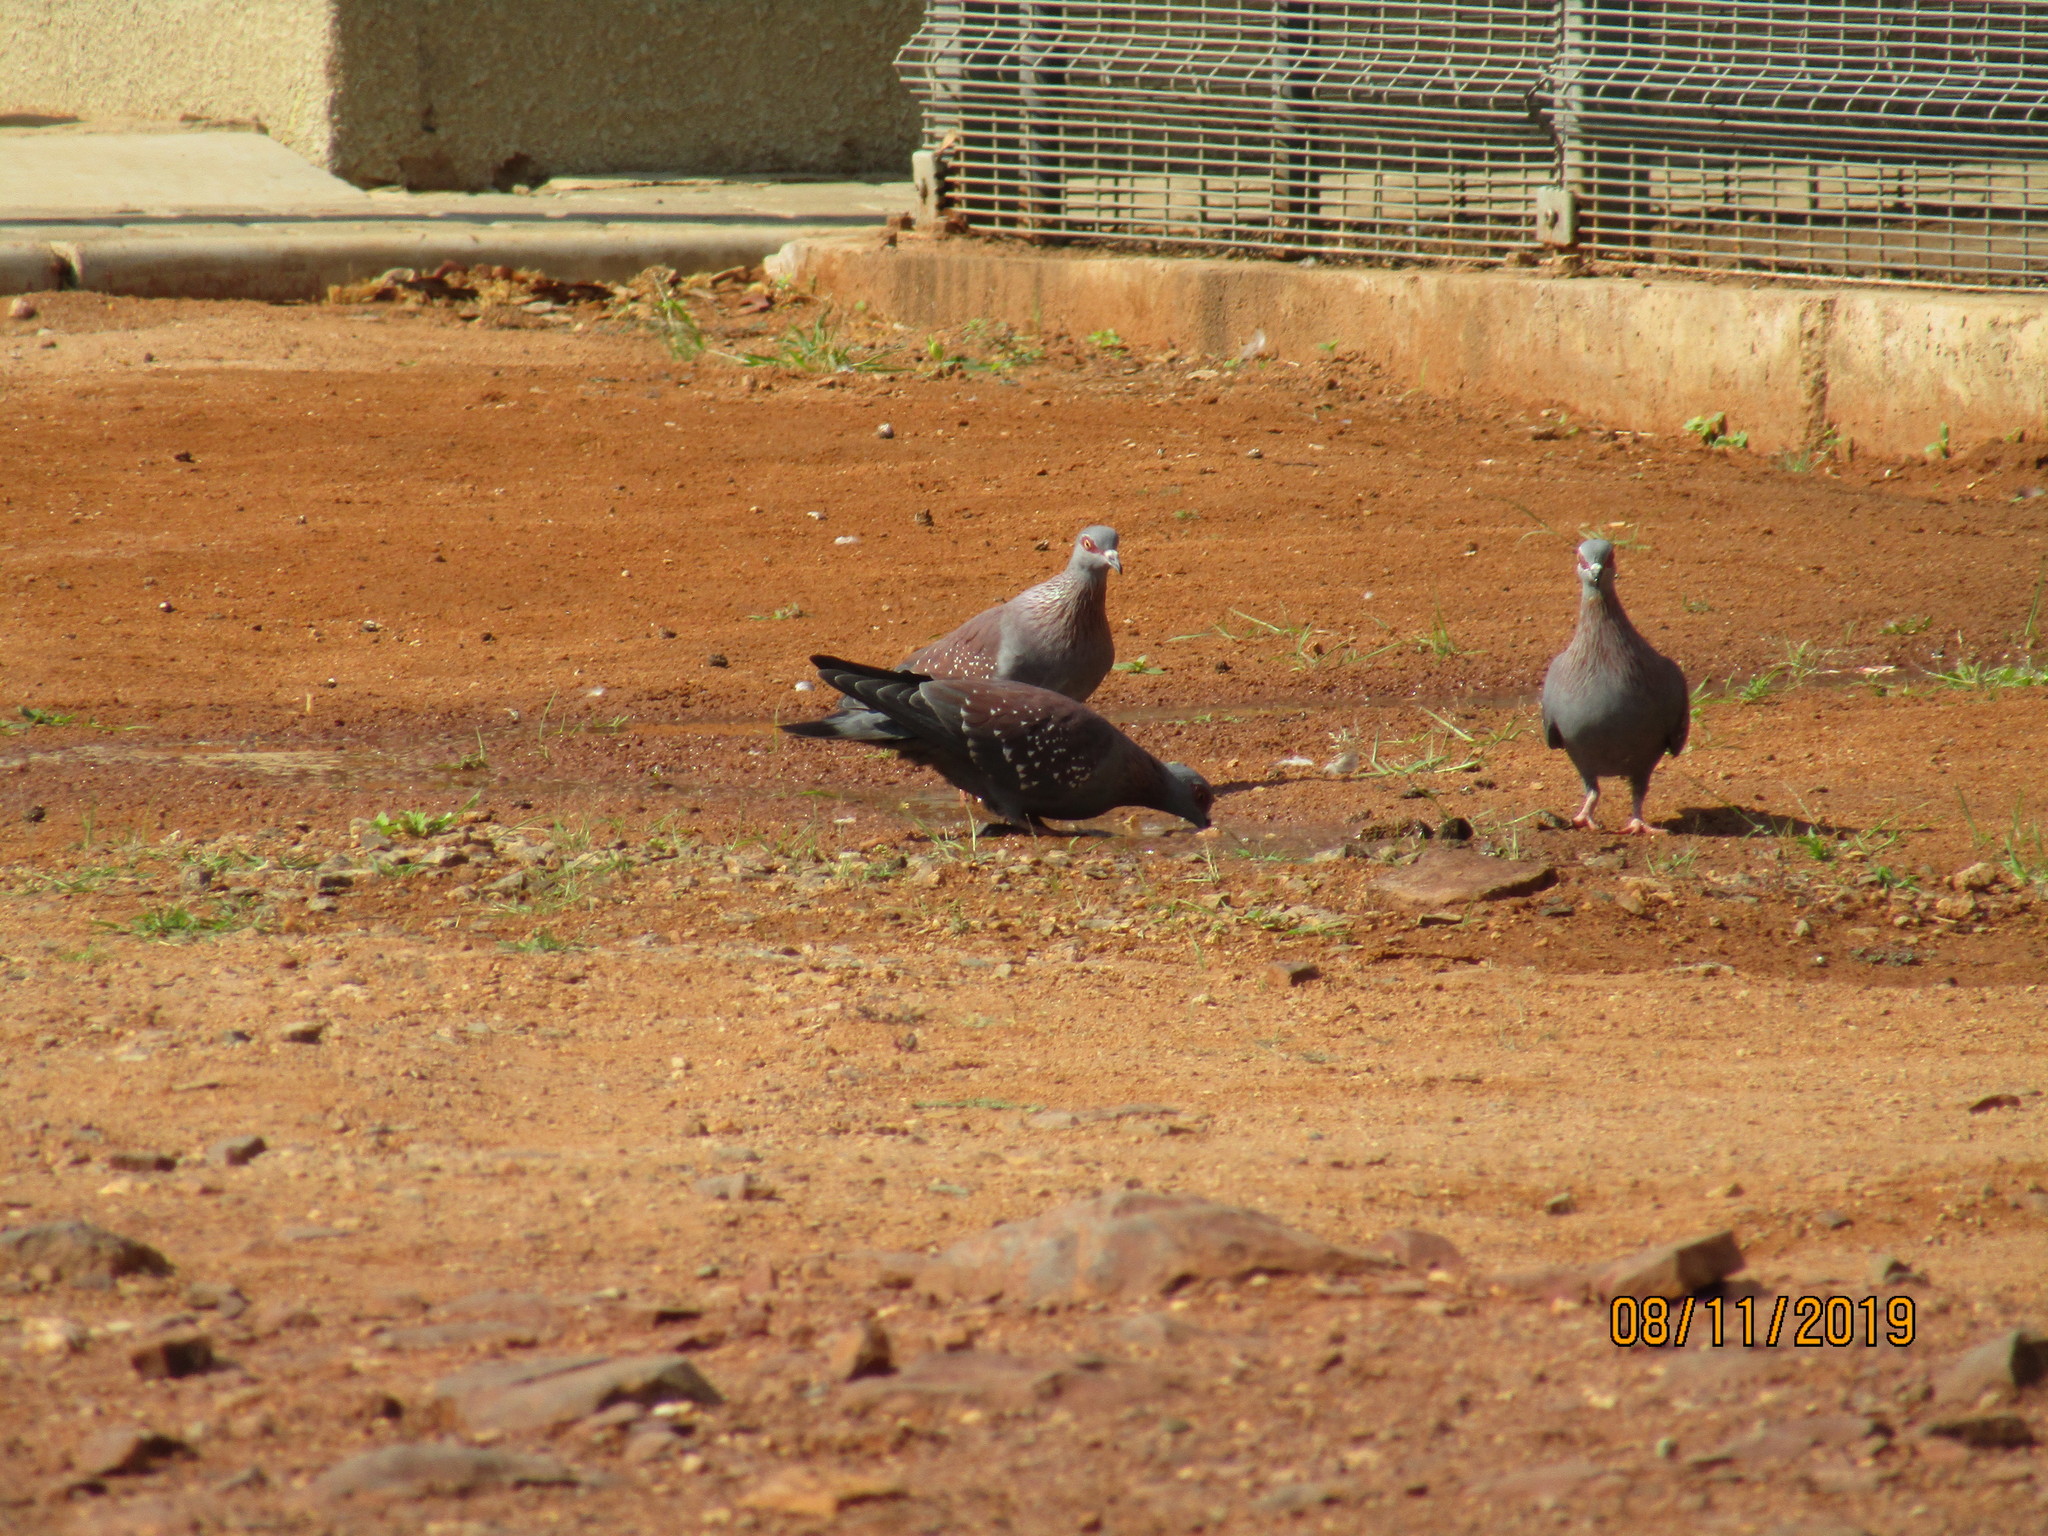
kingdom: Animalia
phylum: Chordata
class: Aves
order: Columbiformes
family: Columbidae
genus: Columba
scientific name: Columba guinea
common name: Speckled pigeon
